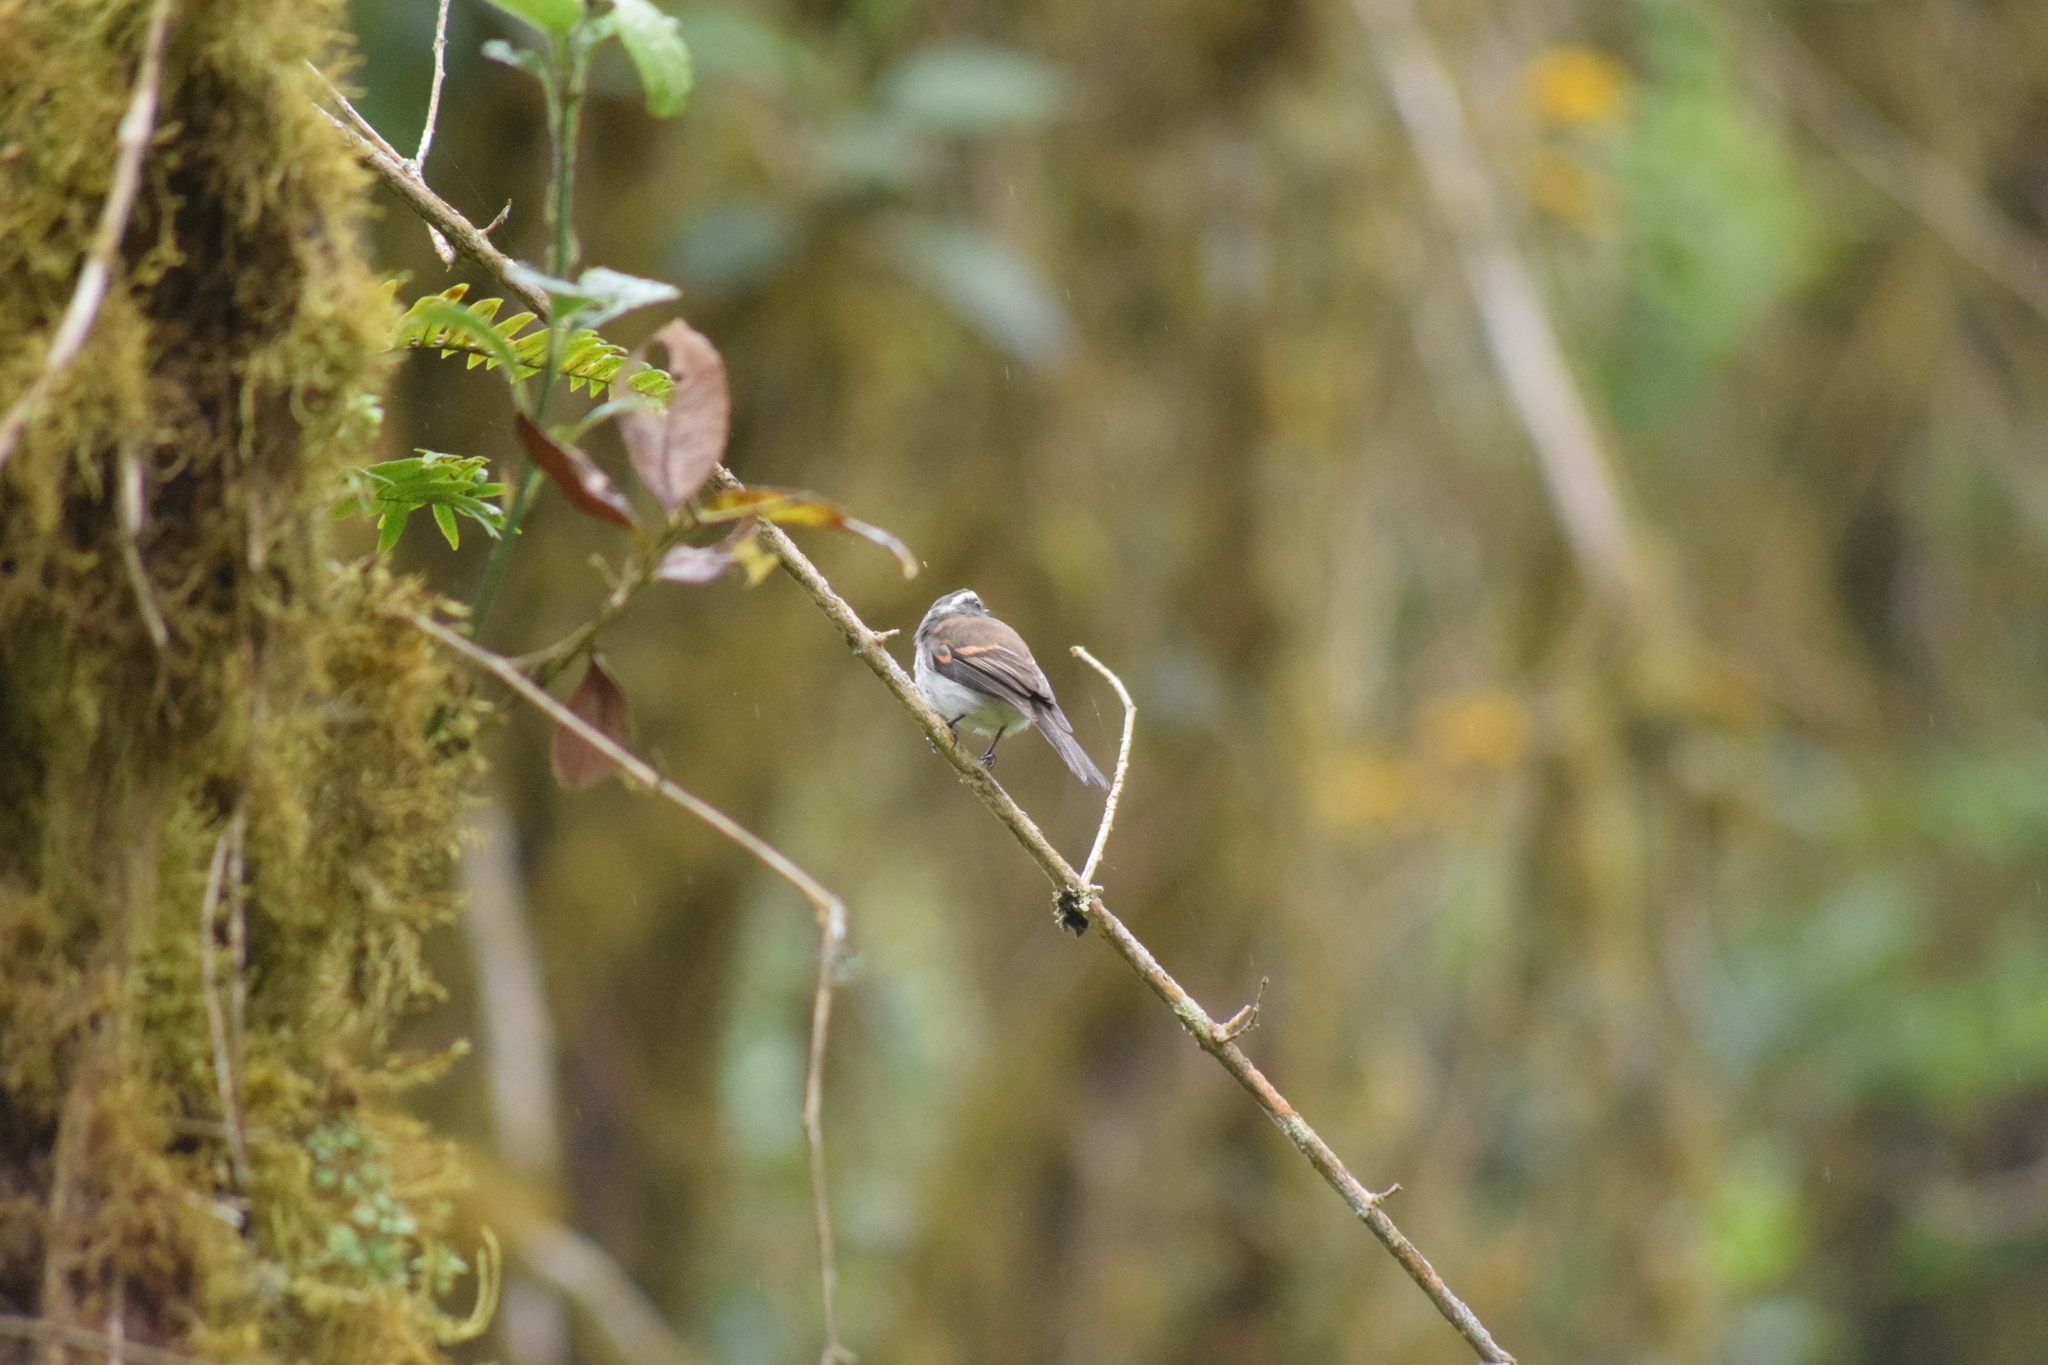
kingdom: Animalia
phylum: Chordata
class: Aves
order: Passeriformes
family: Tyrannidae
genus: Ochthoeca
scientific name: Ochthoeca rufipectoralis
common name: Rufous-breasted chat-tyrant
